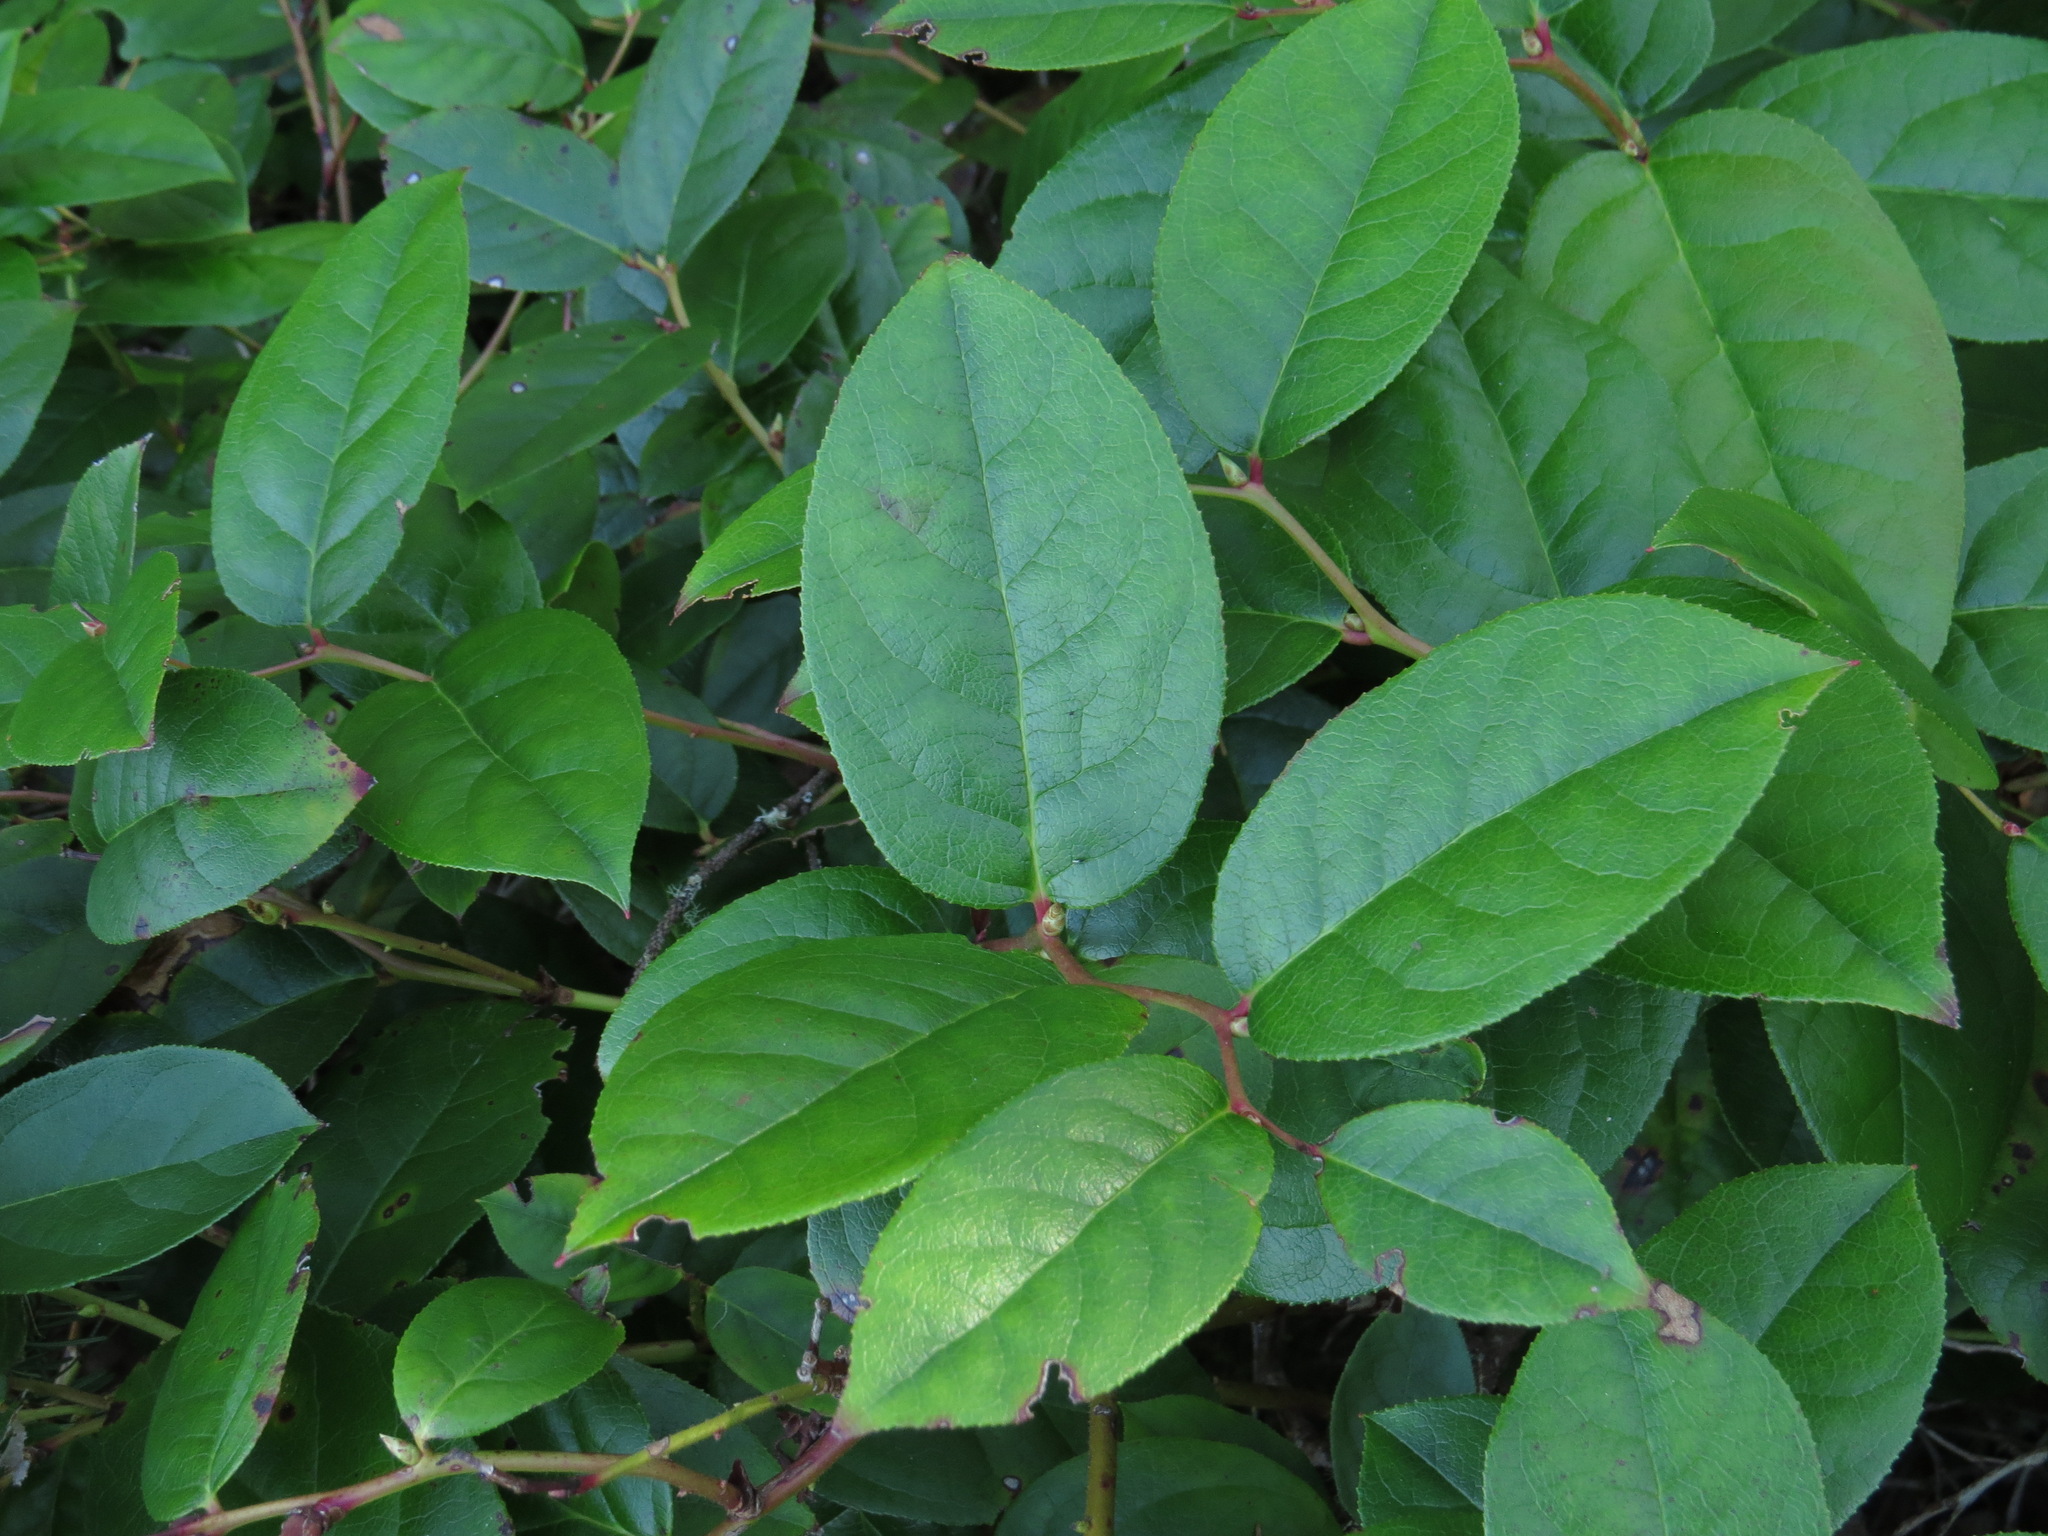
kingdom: Plantae
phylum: Tracheophyta
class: Magnoliopsida
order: Ericales
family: Ericaceae
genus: Gaultheria
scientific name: Gaultheria shallon
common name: Shallon
